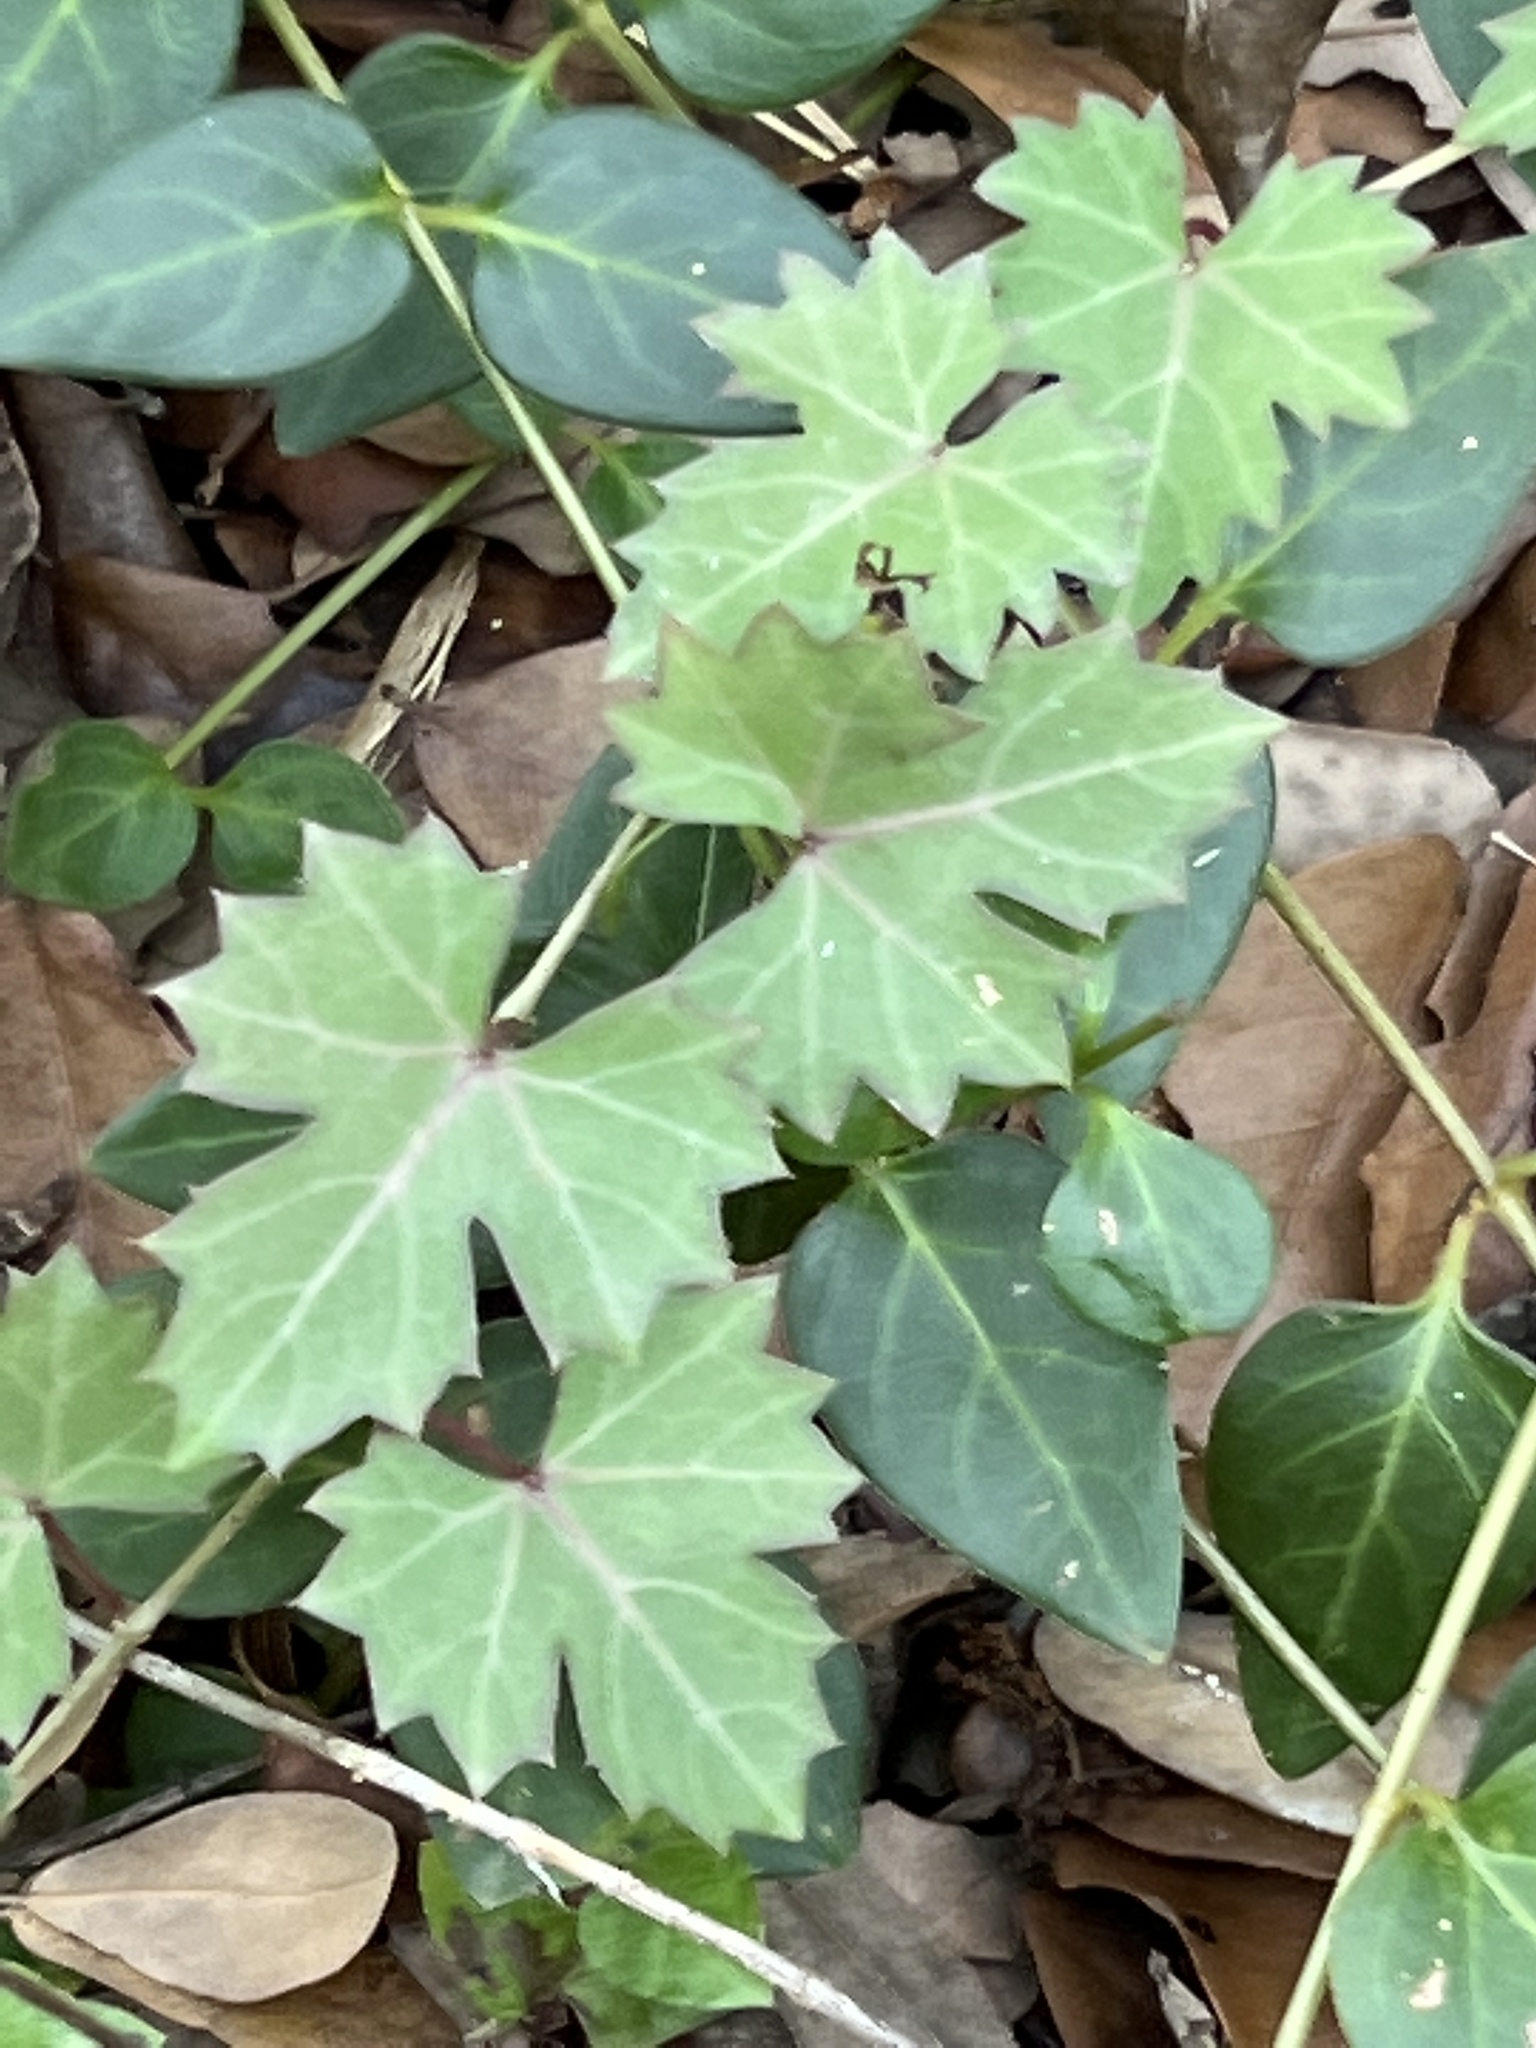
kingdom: Plantae
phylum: Tracheophyta
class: Magnoliopsida
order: Vitales
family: Vitaceae
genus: Cissus
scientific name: Cissus trifoliata
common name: Vine-sorrel
